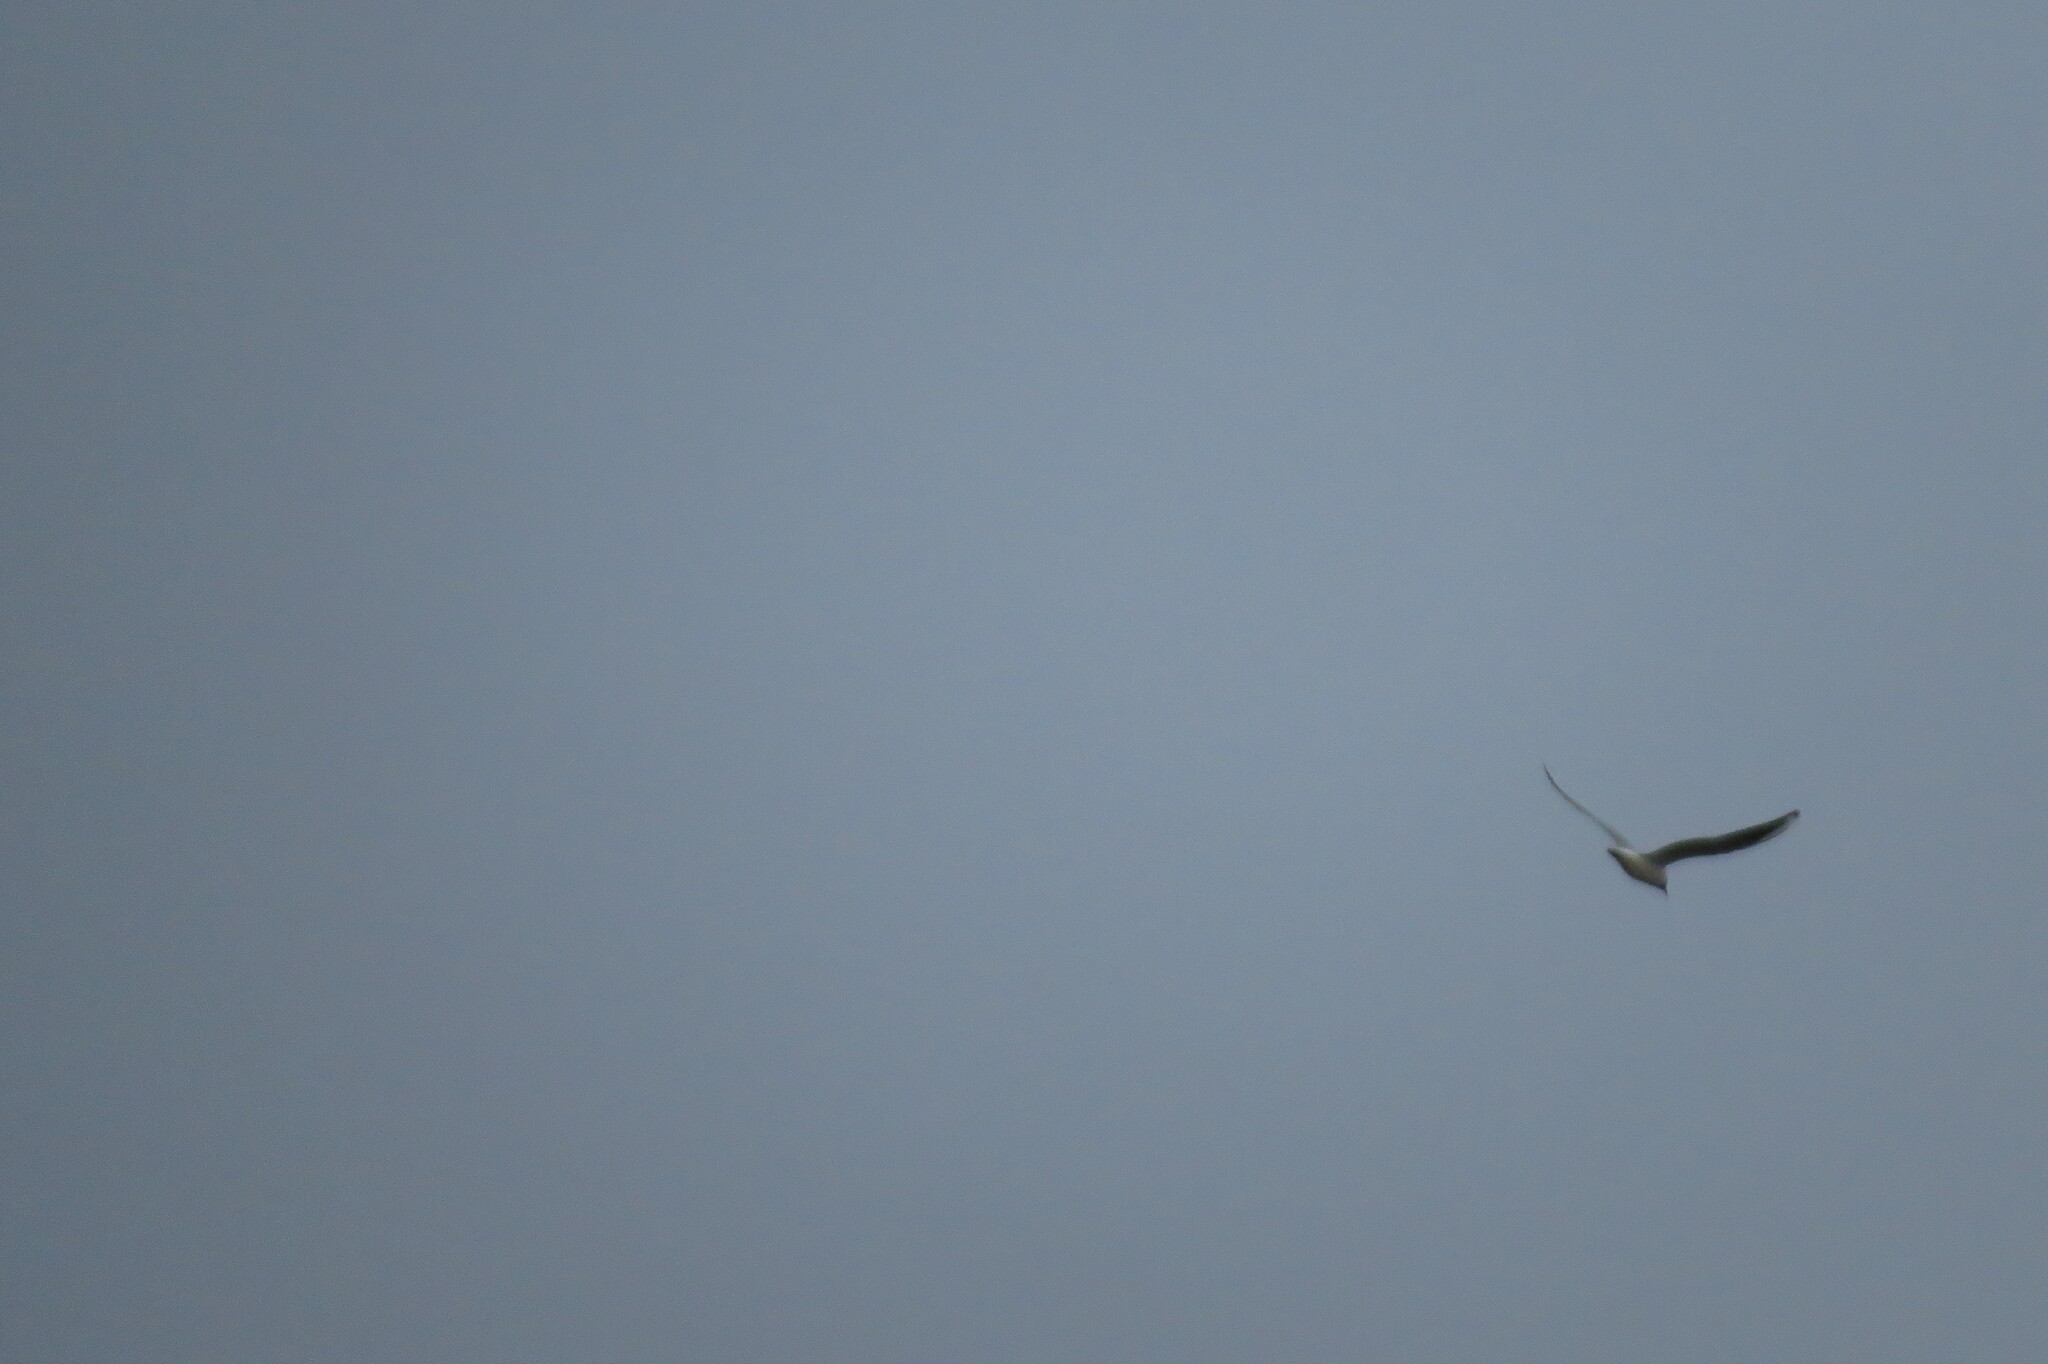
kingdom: Animalia
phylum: Chordata
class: Aves
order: Charadriiformes
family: Laridae
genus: Chroicocephalus
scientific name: Chroicocephalus ridibundus
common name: Black-headed gull
